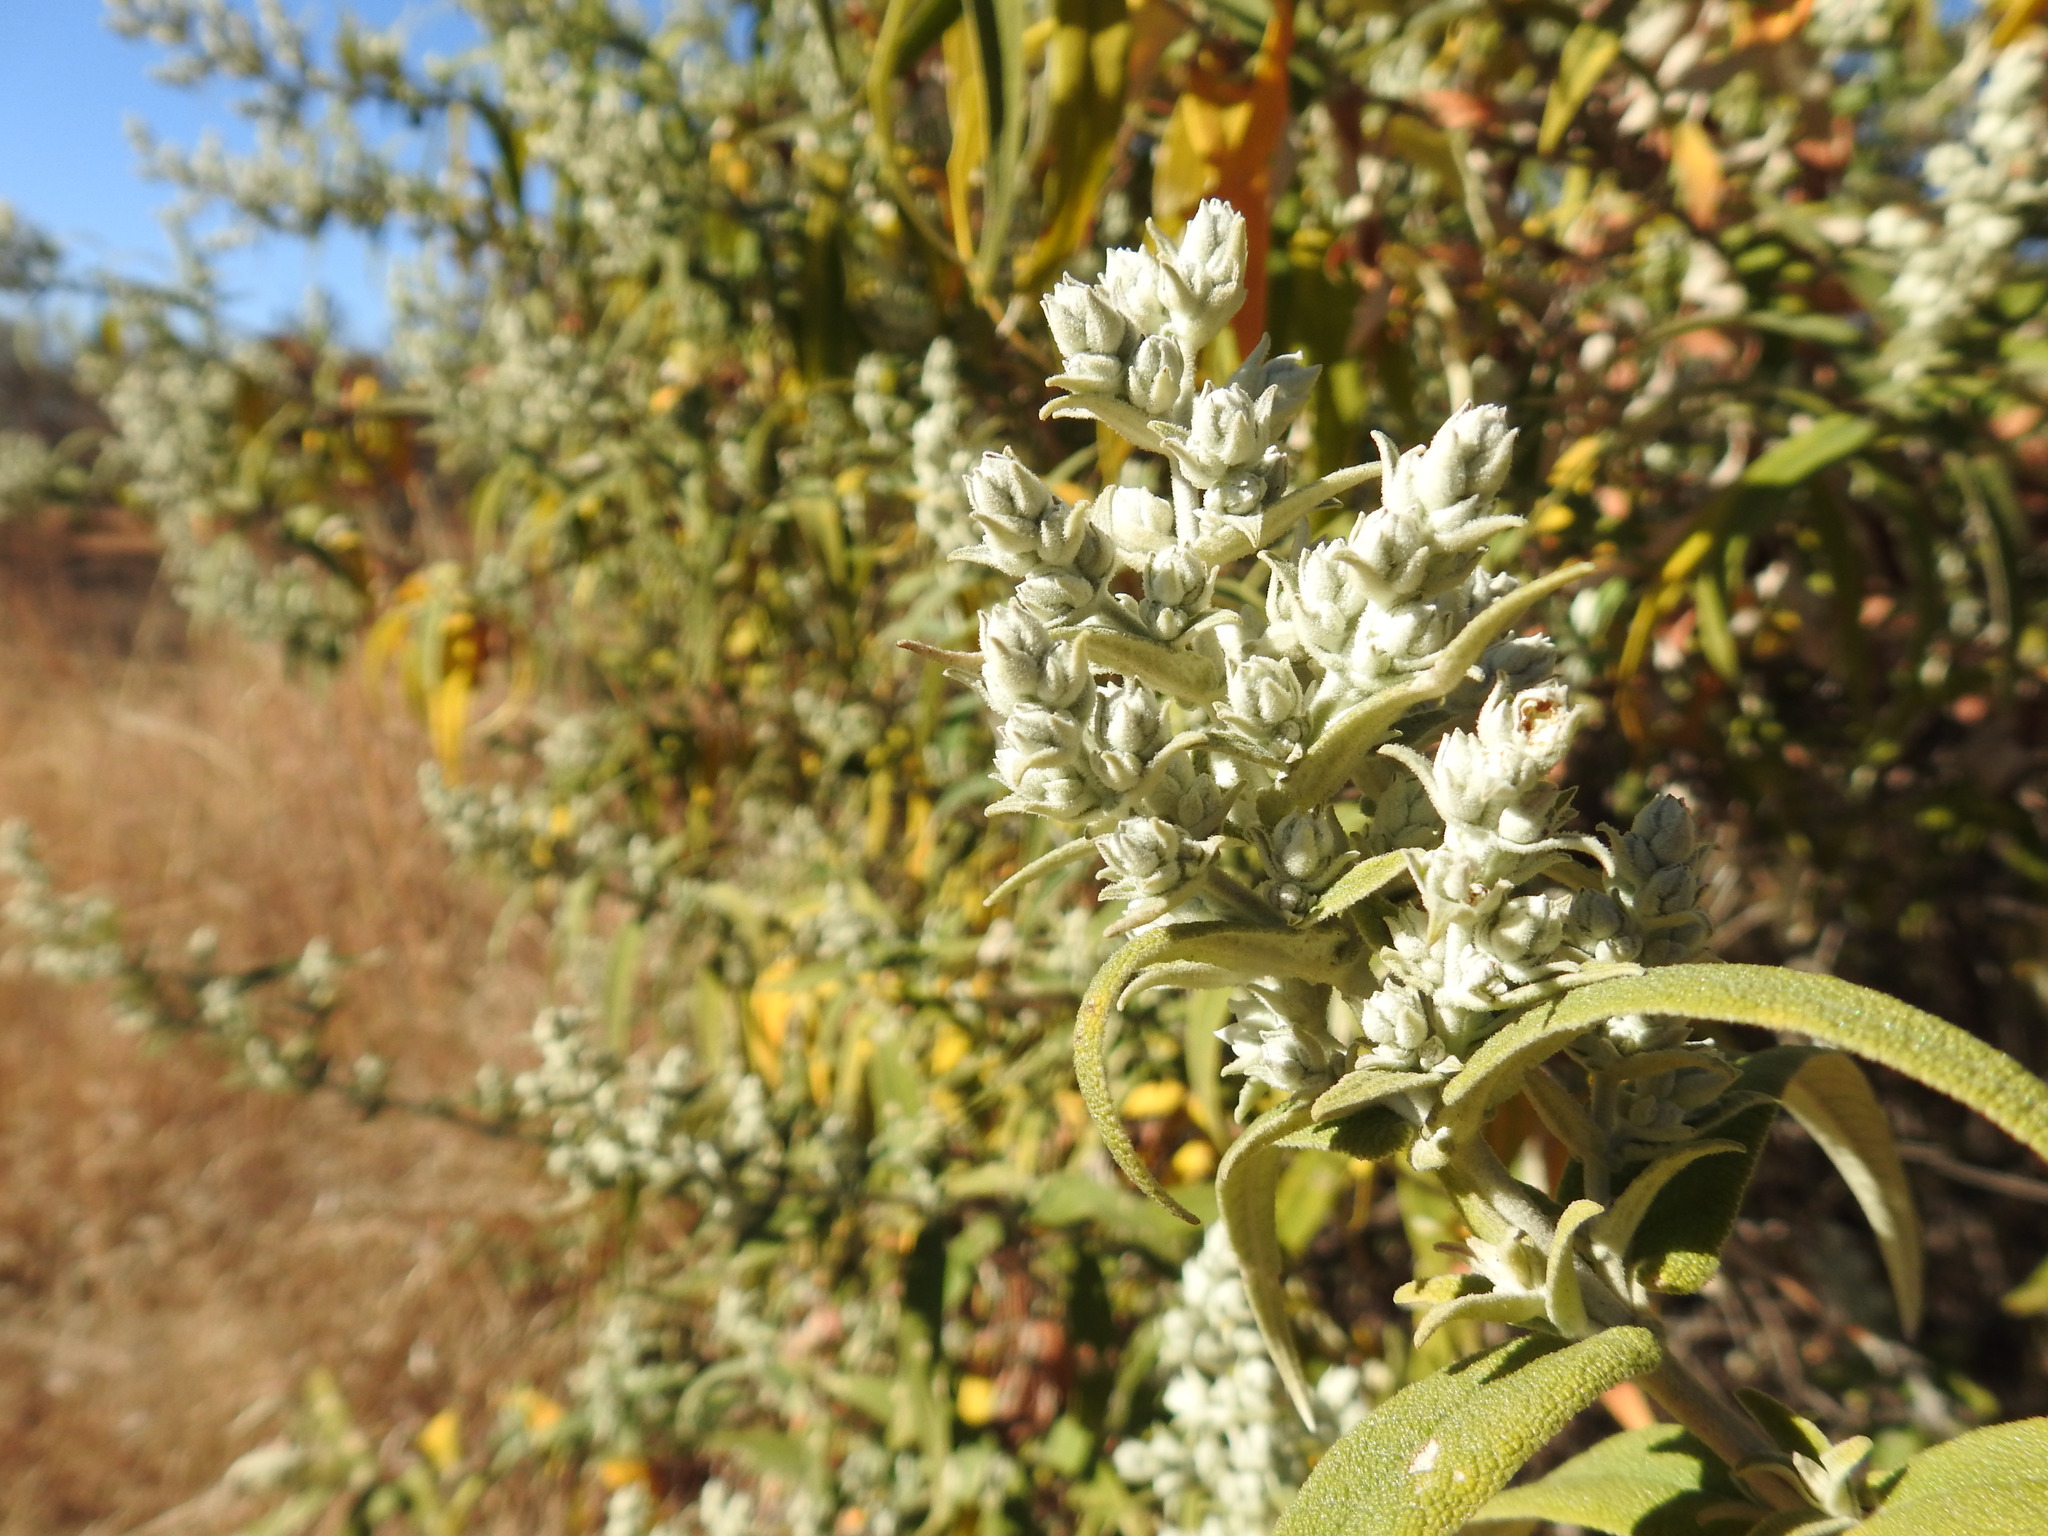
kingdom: Plantae
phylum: Tracheophyta
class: Magnoliopsida
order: Lamiales
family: Scrophulariaceae
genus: Buddleja
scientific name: Buddleja salviifolia
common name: Sagewood
